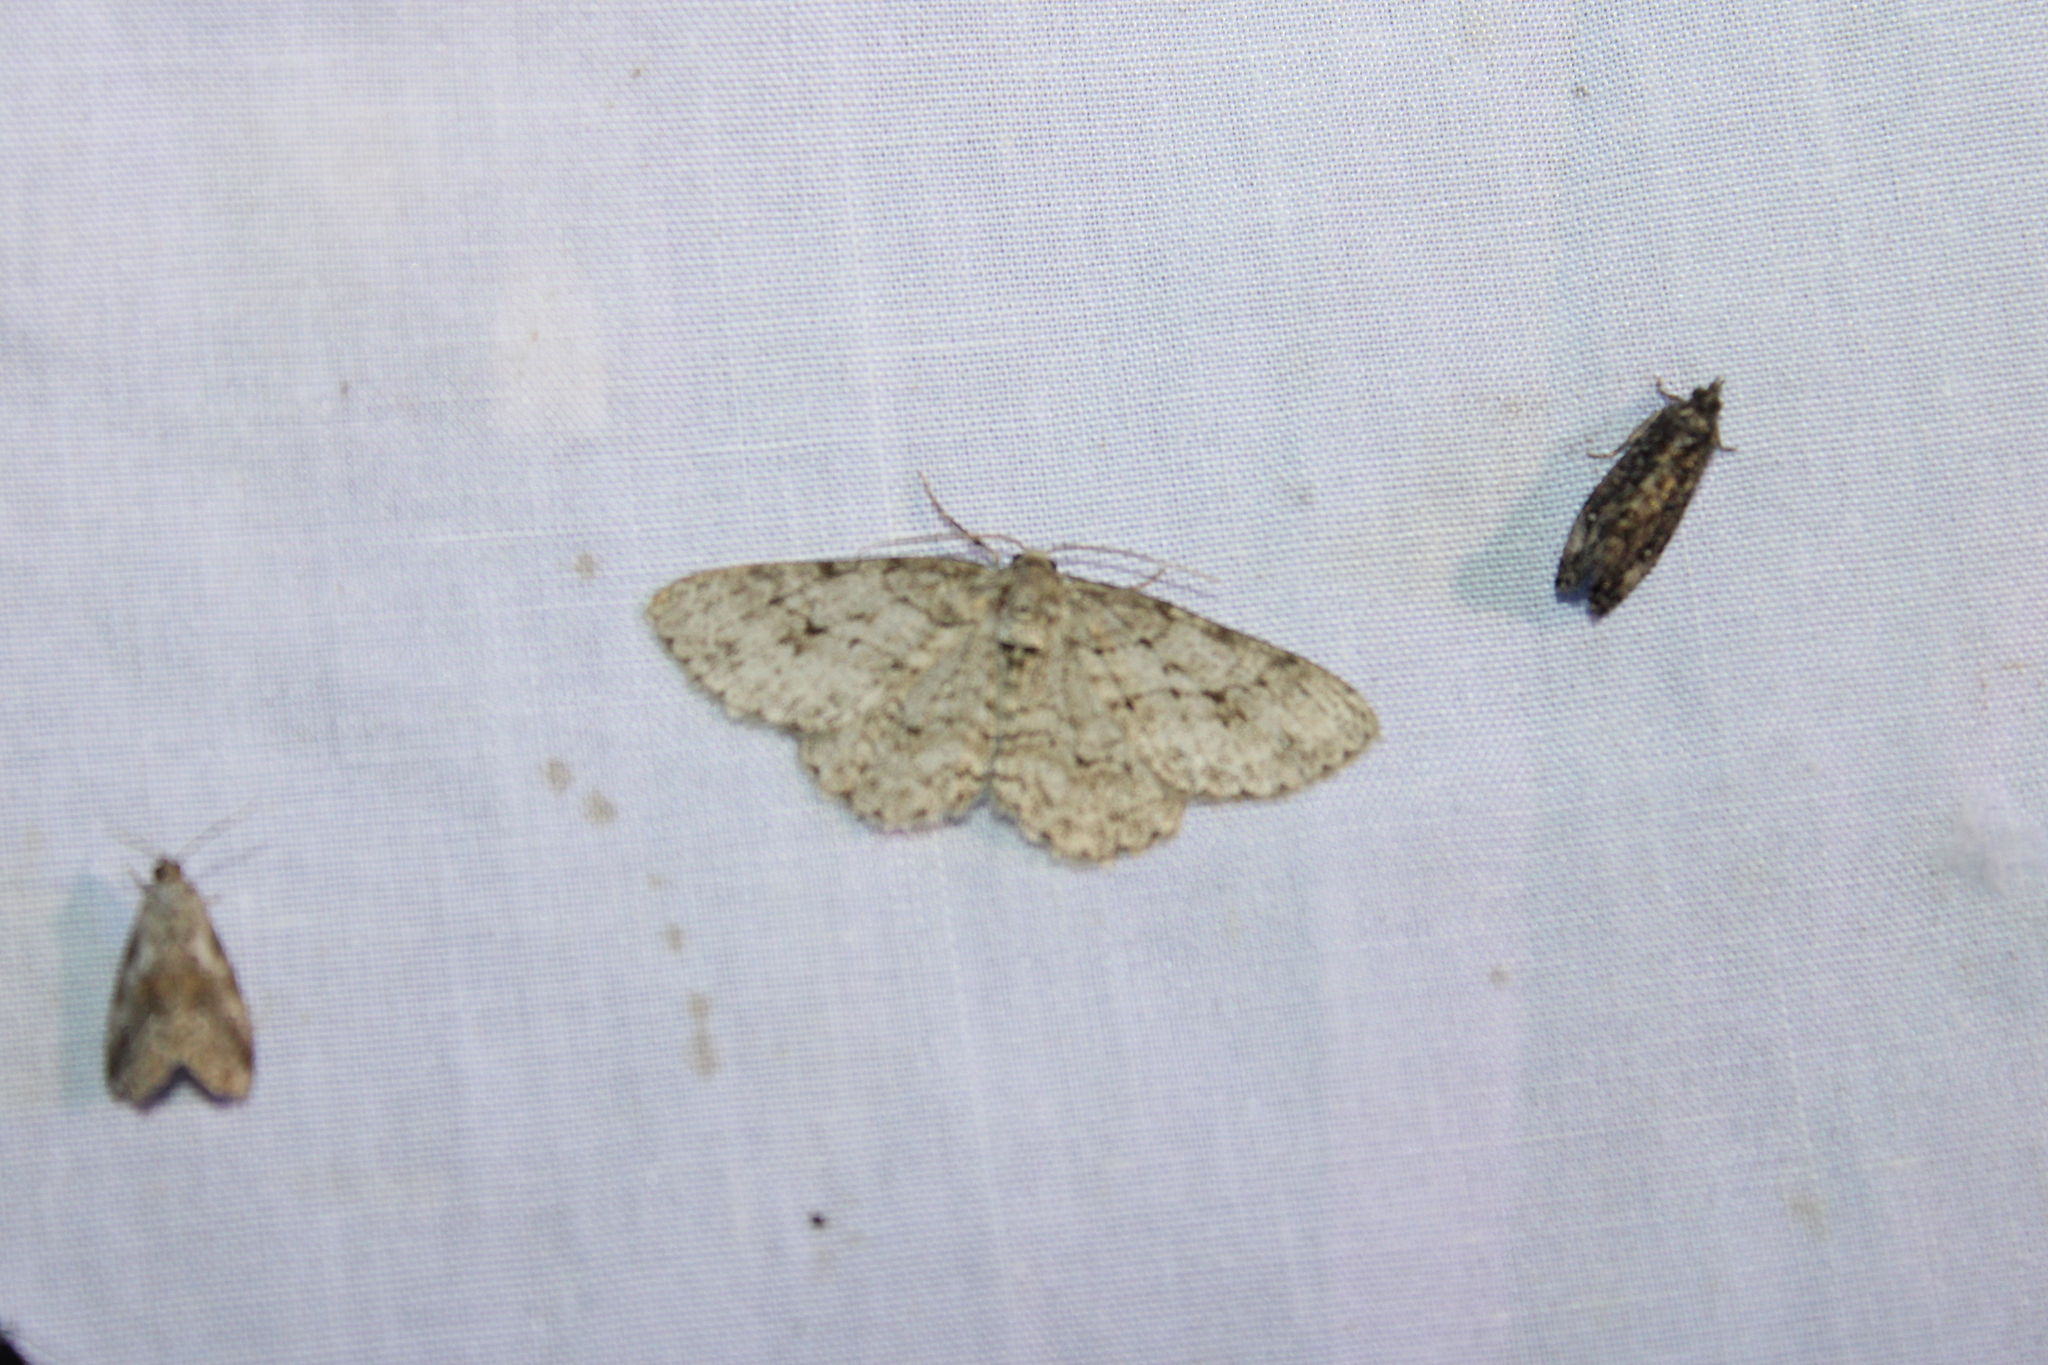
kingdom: Animalia
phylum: Arthropoda
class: Insecta
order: Lepidoptera
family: Geometridae
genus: Ectropis
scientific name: Ectropis crepuscularia
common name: Engrailed
